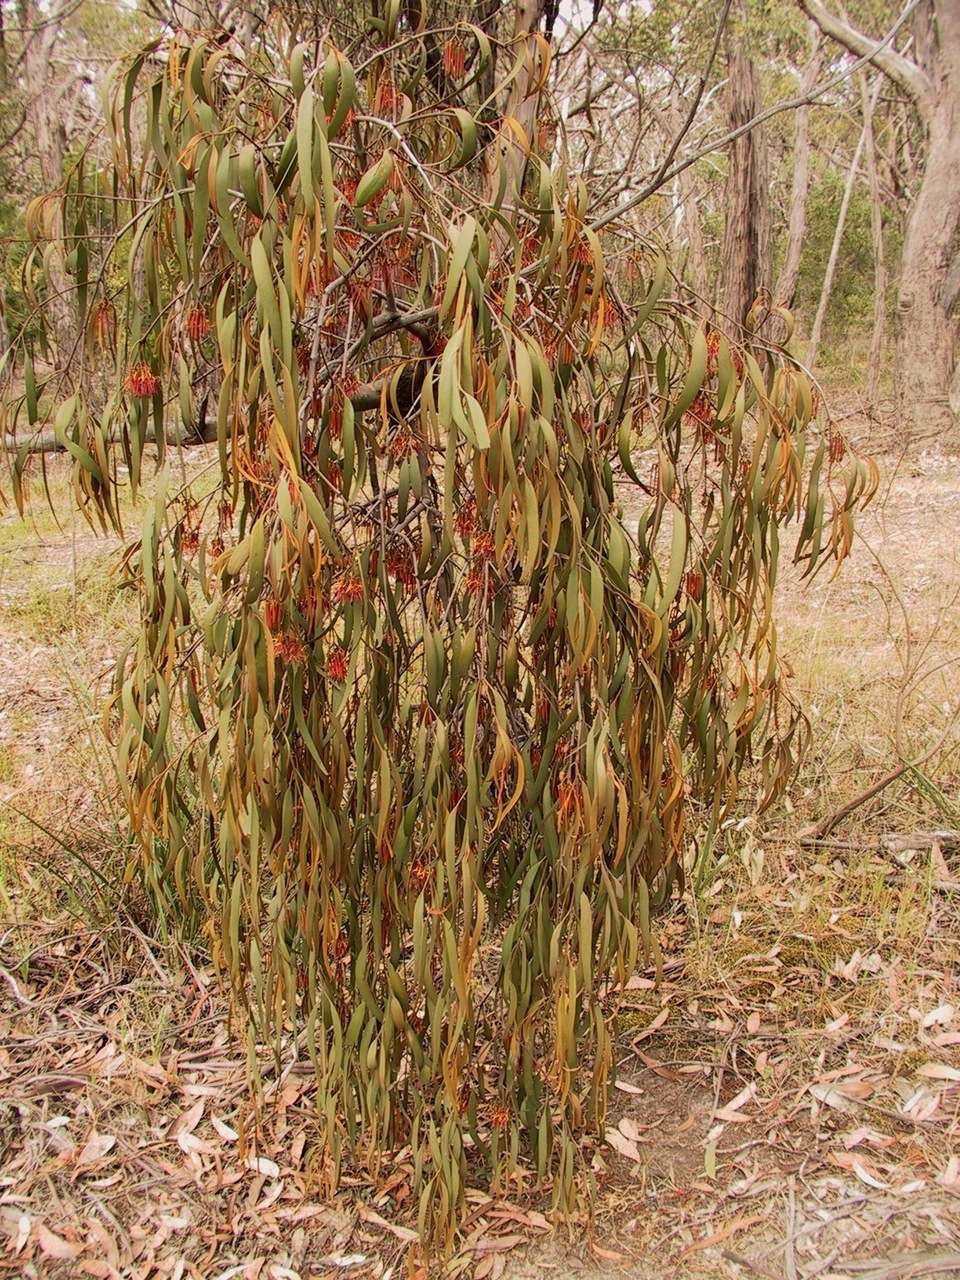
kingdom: Plantae
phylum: Tracheophyta
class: Magnoliopsida
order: Santalales
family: Loranthaceae
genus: Amyema
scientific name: Amyema pendula
